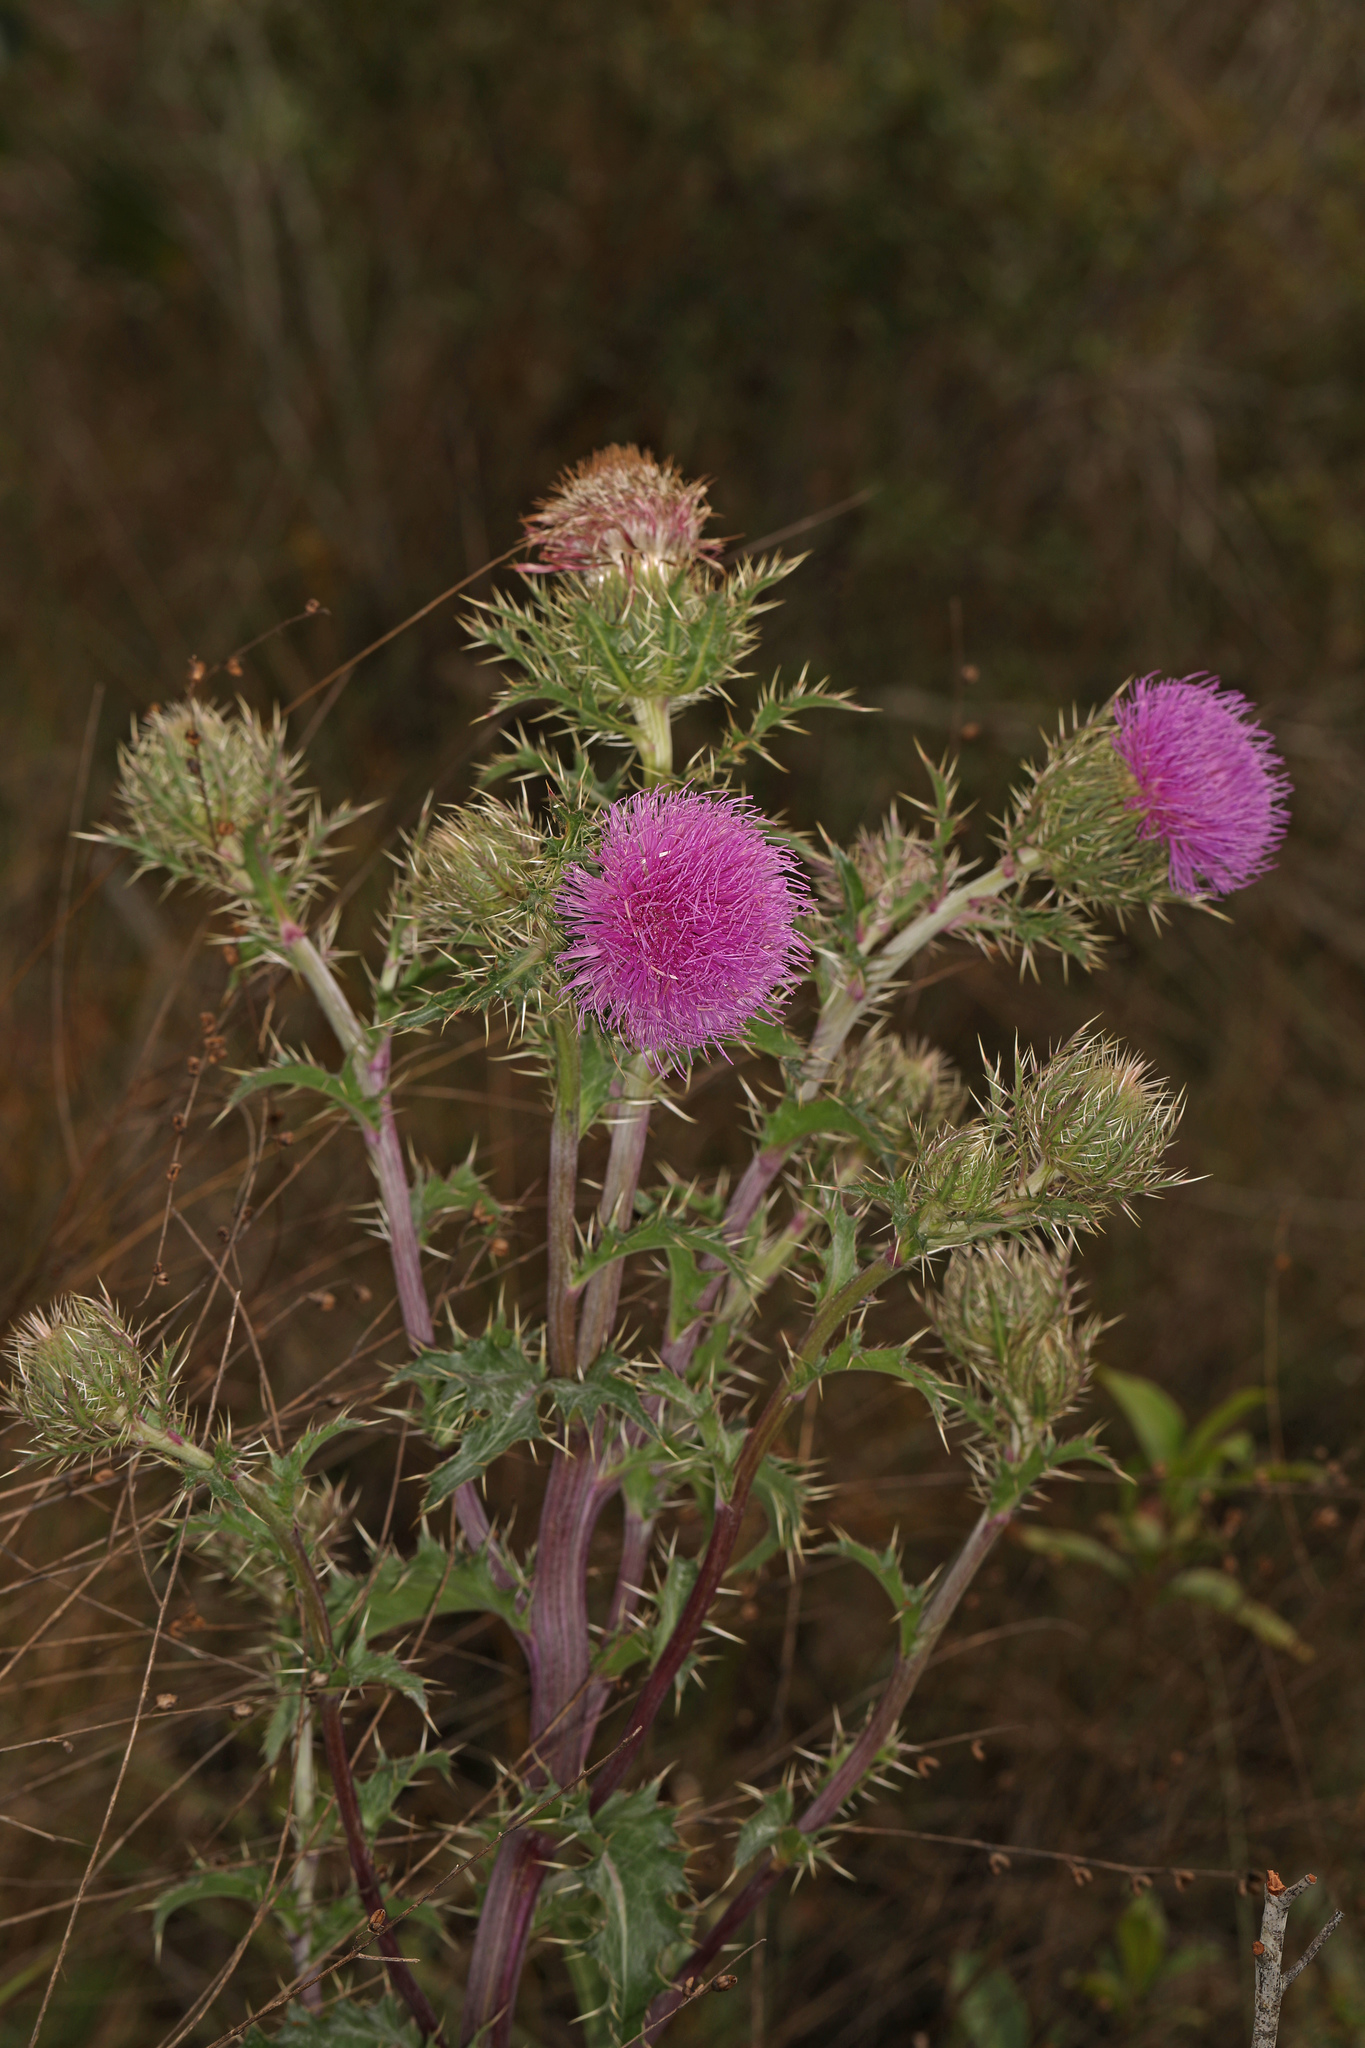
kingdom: Plantae
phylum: Tracheophyta
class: Magnoliopsida
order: Asterales
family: Asteraceae
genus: Cirsium
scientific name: Cirsium horridulum
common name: Bristly thistle
